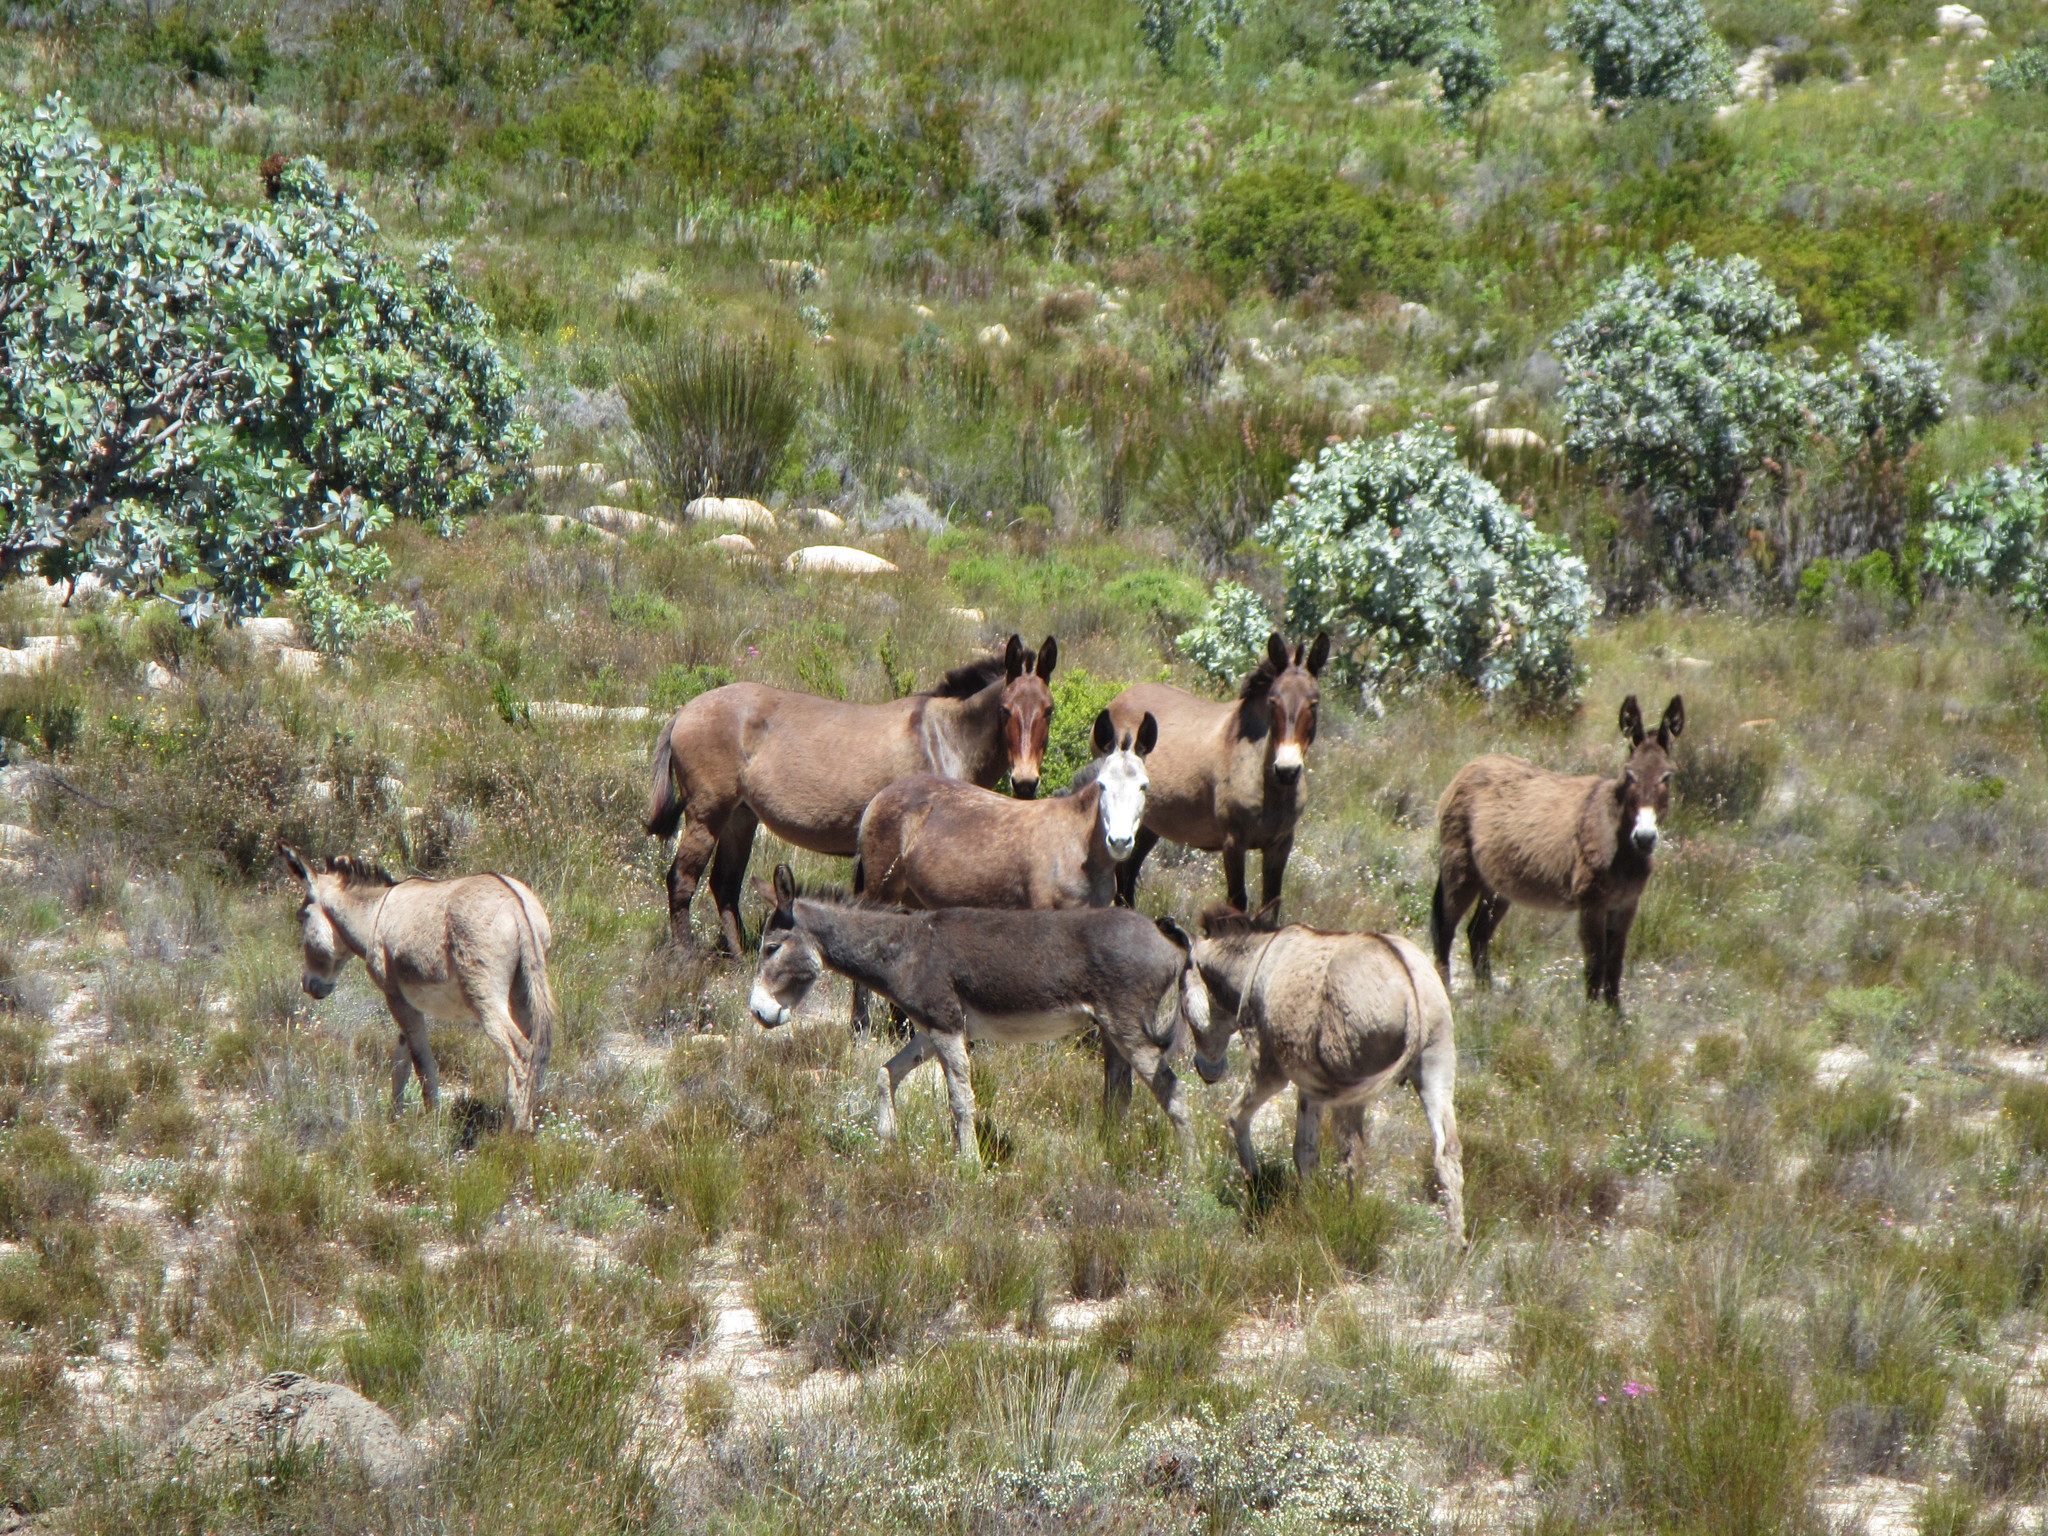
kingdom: Animalia
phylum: Chordata
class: Mammalia
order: Perissodactyla
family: Equidae
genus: Equus
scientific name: Equus asinus
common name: Ass
